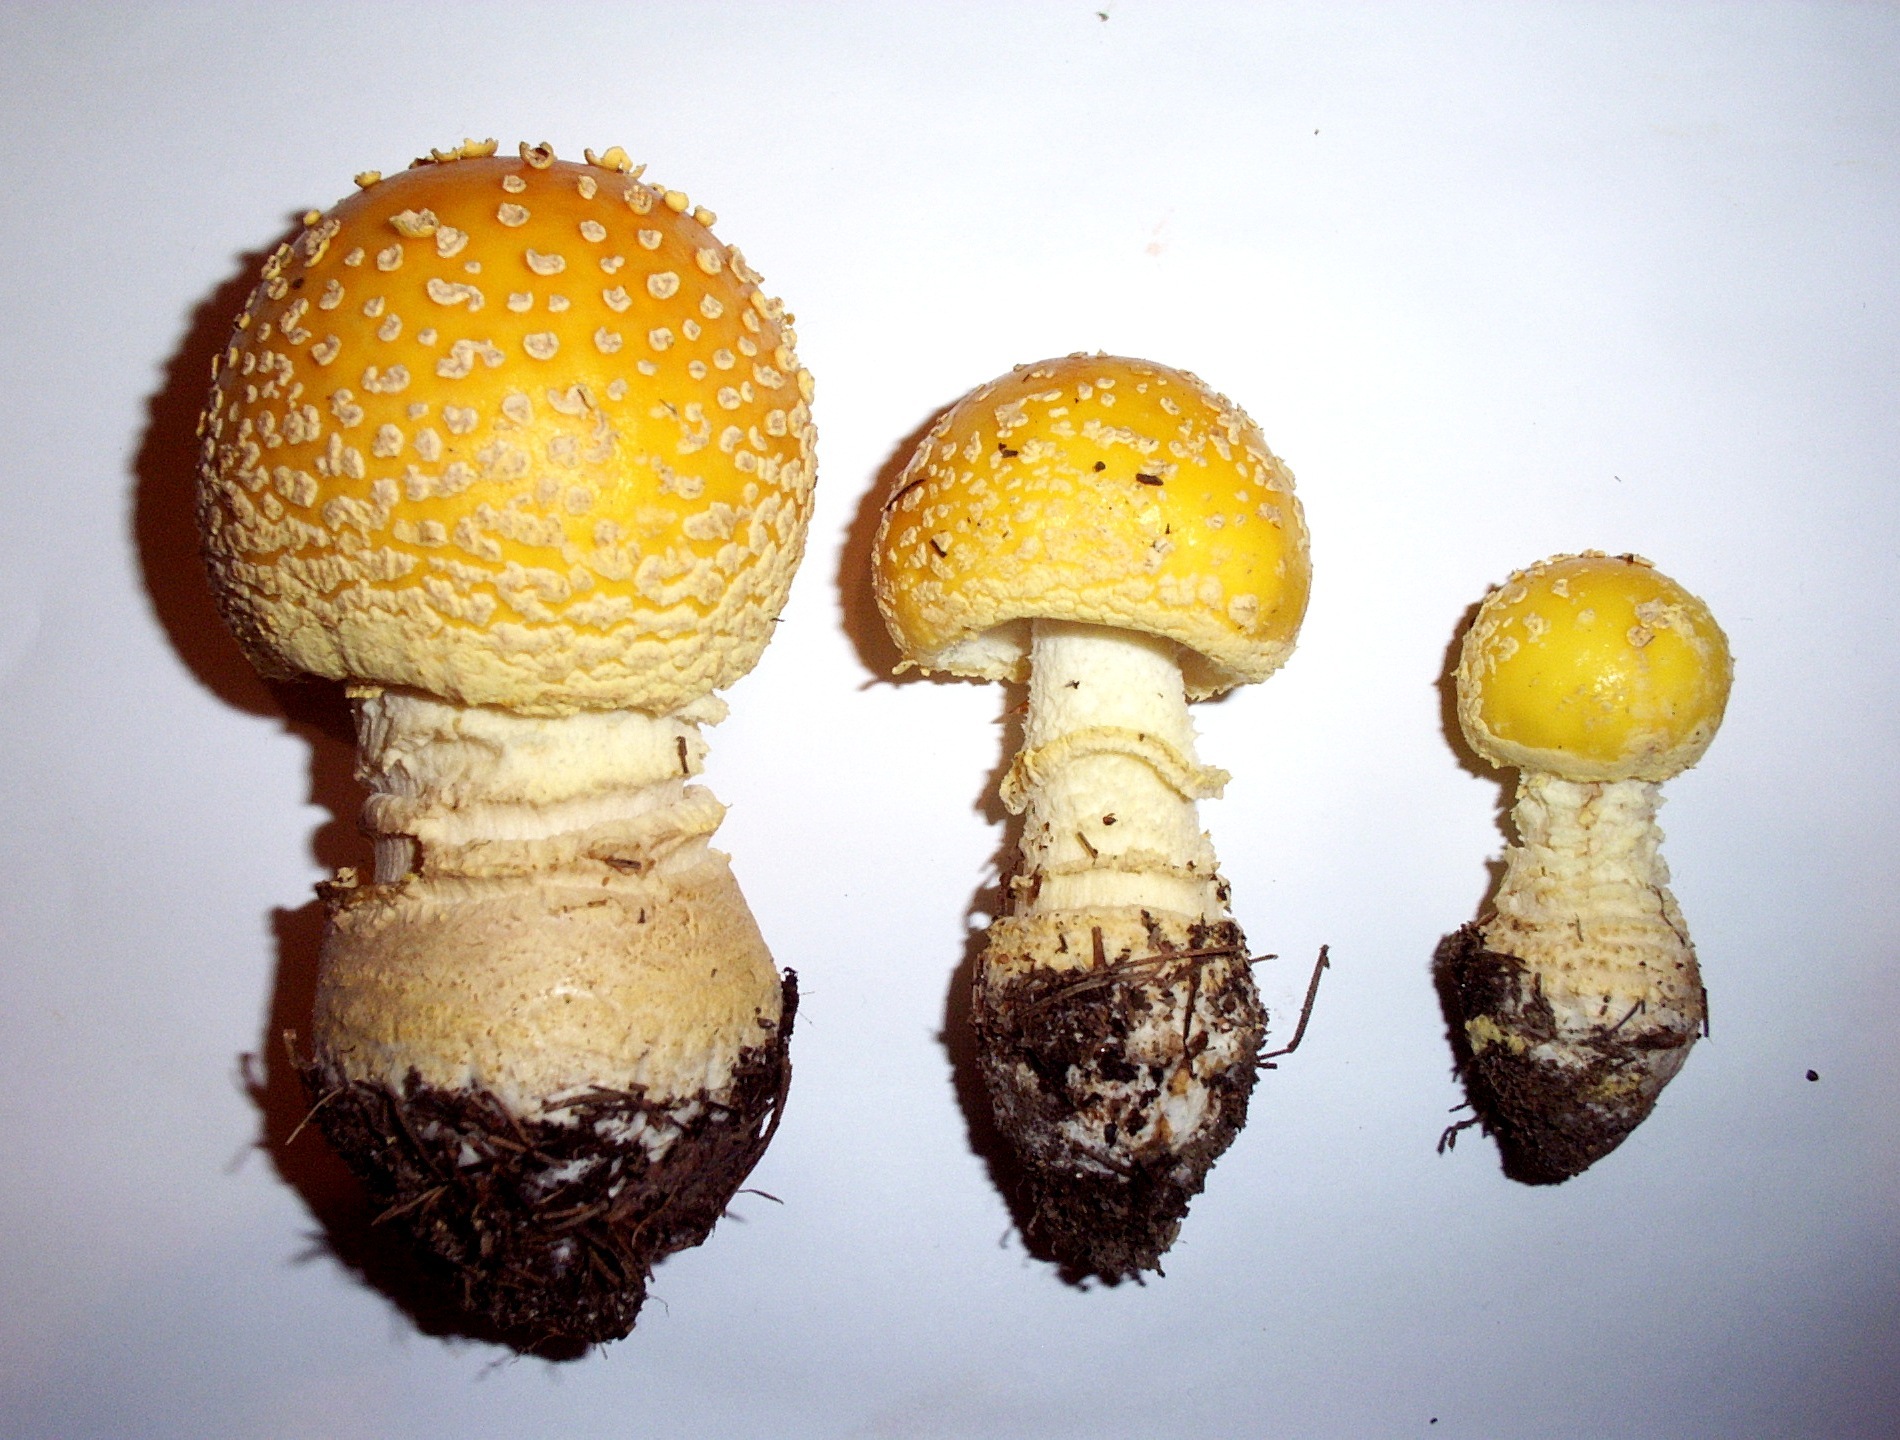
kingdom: Fungi
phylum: Basidiomycota
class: Agaricomycetes
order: Agaricales
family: Amanitaceae
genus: Amanita
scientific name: Amanita muscaria
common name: Fly agaric
